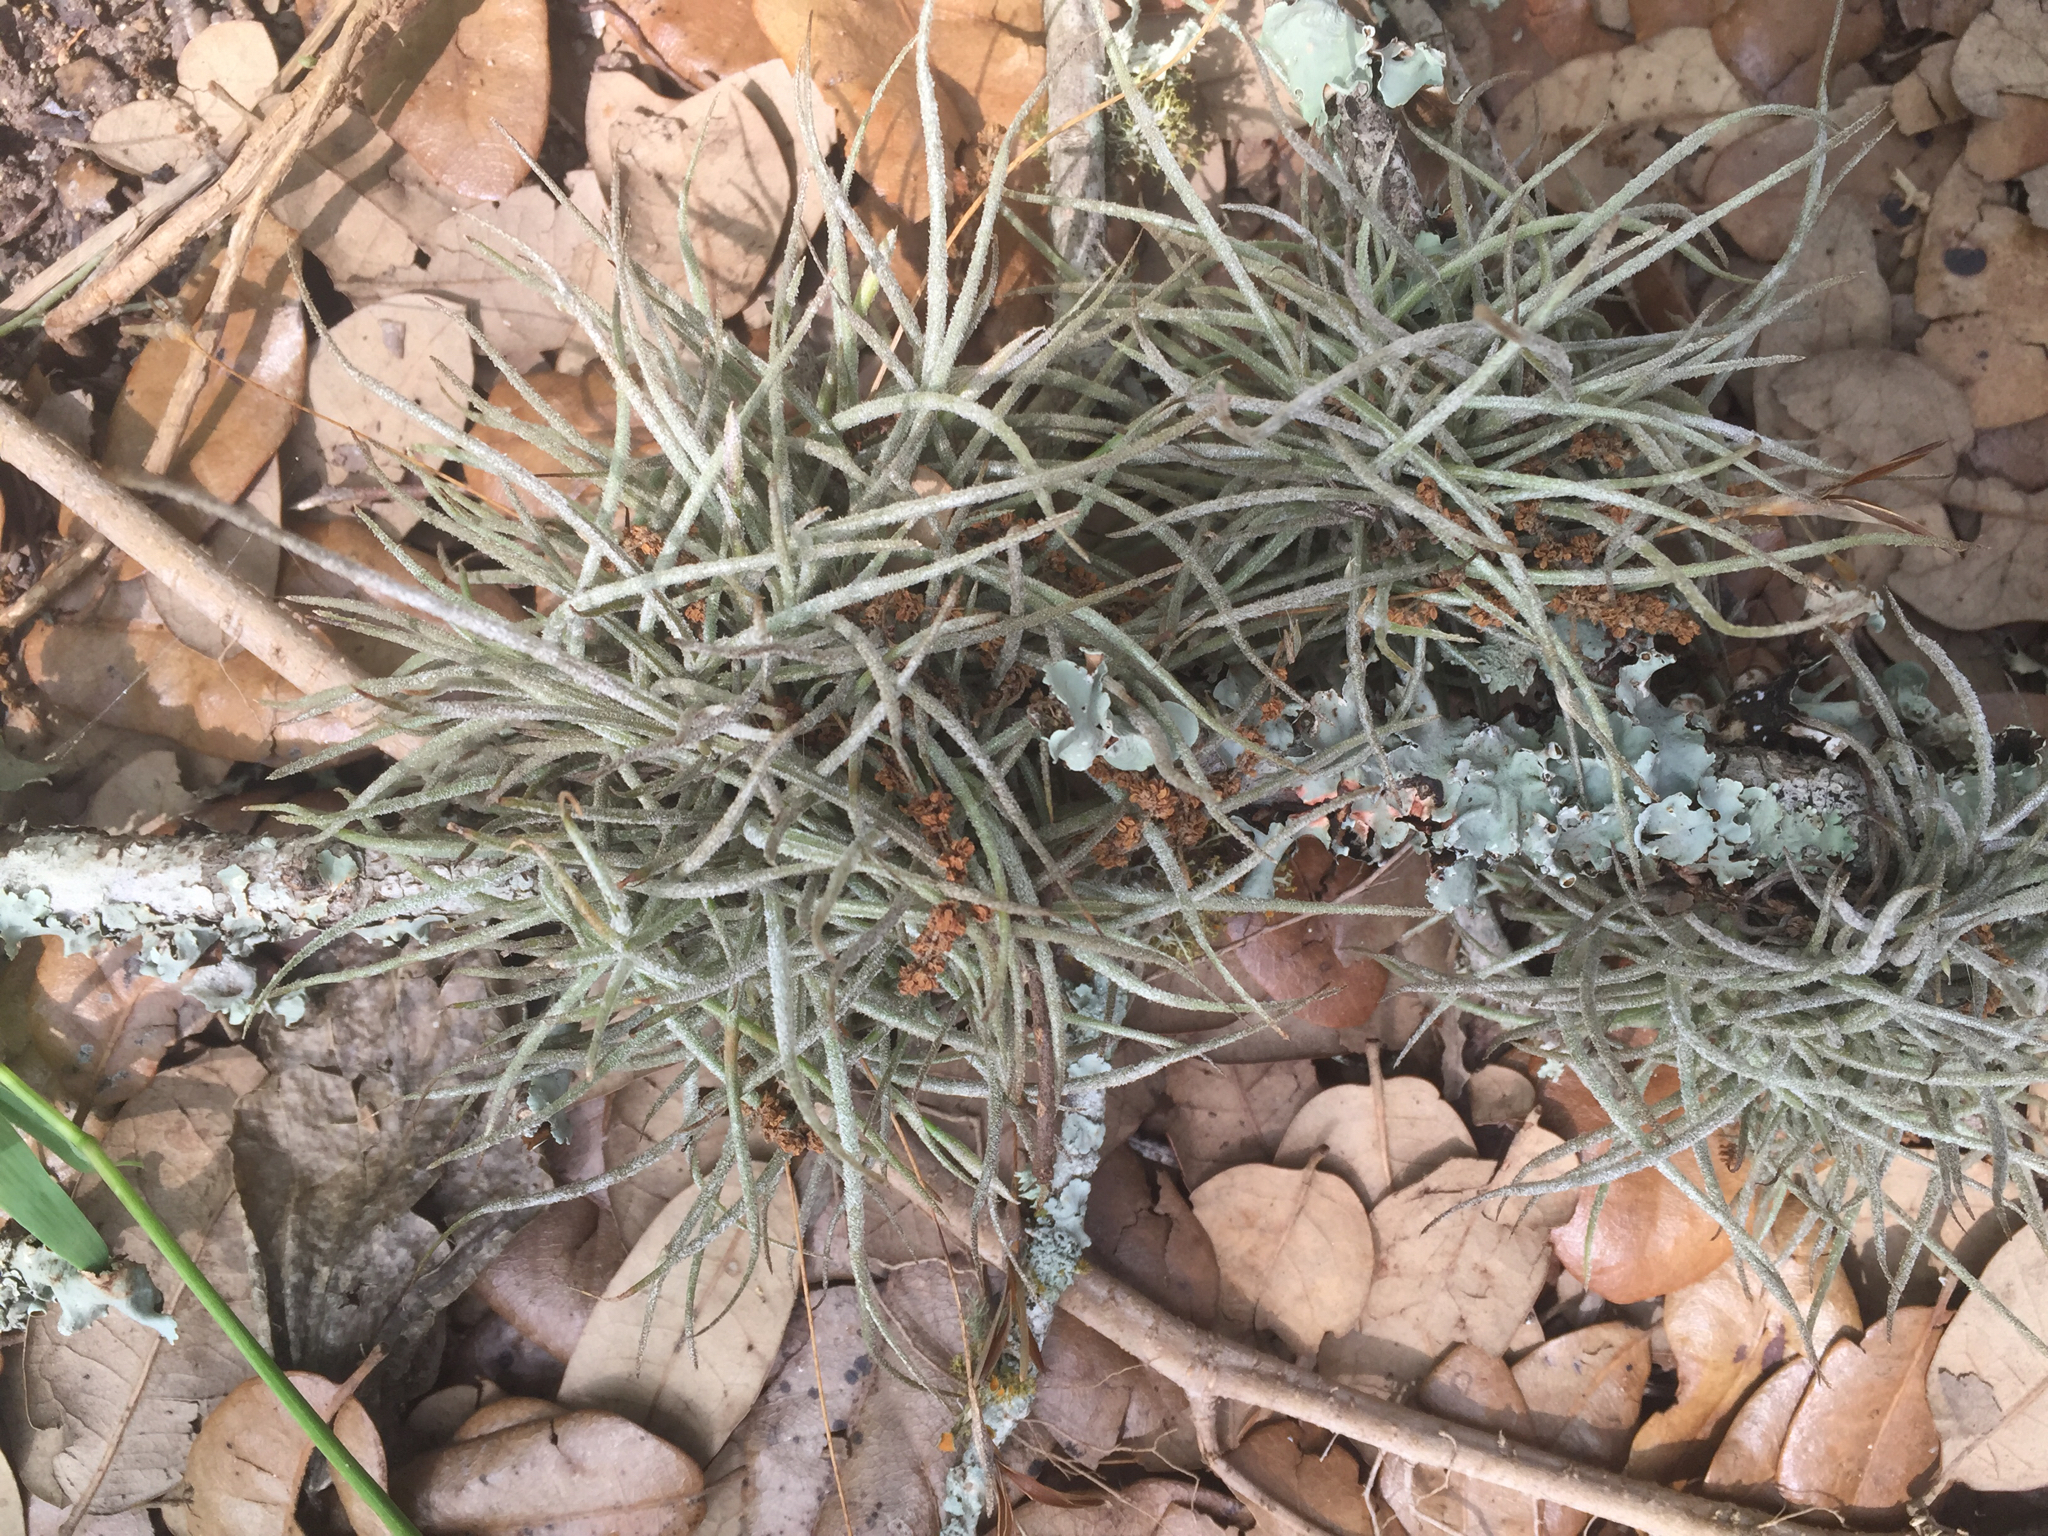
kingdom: Plantae
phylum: Tracheophyta
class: Liliopsida
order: Poales
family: Bromeliaceae
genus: Tillandsia
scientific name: Tillandsia recurvata
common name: Small ballmoss
